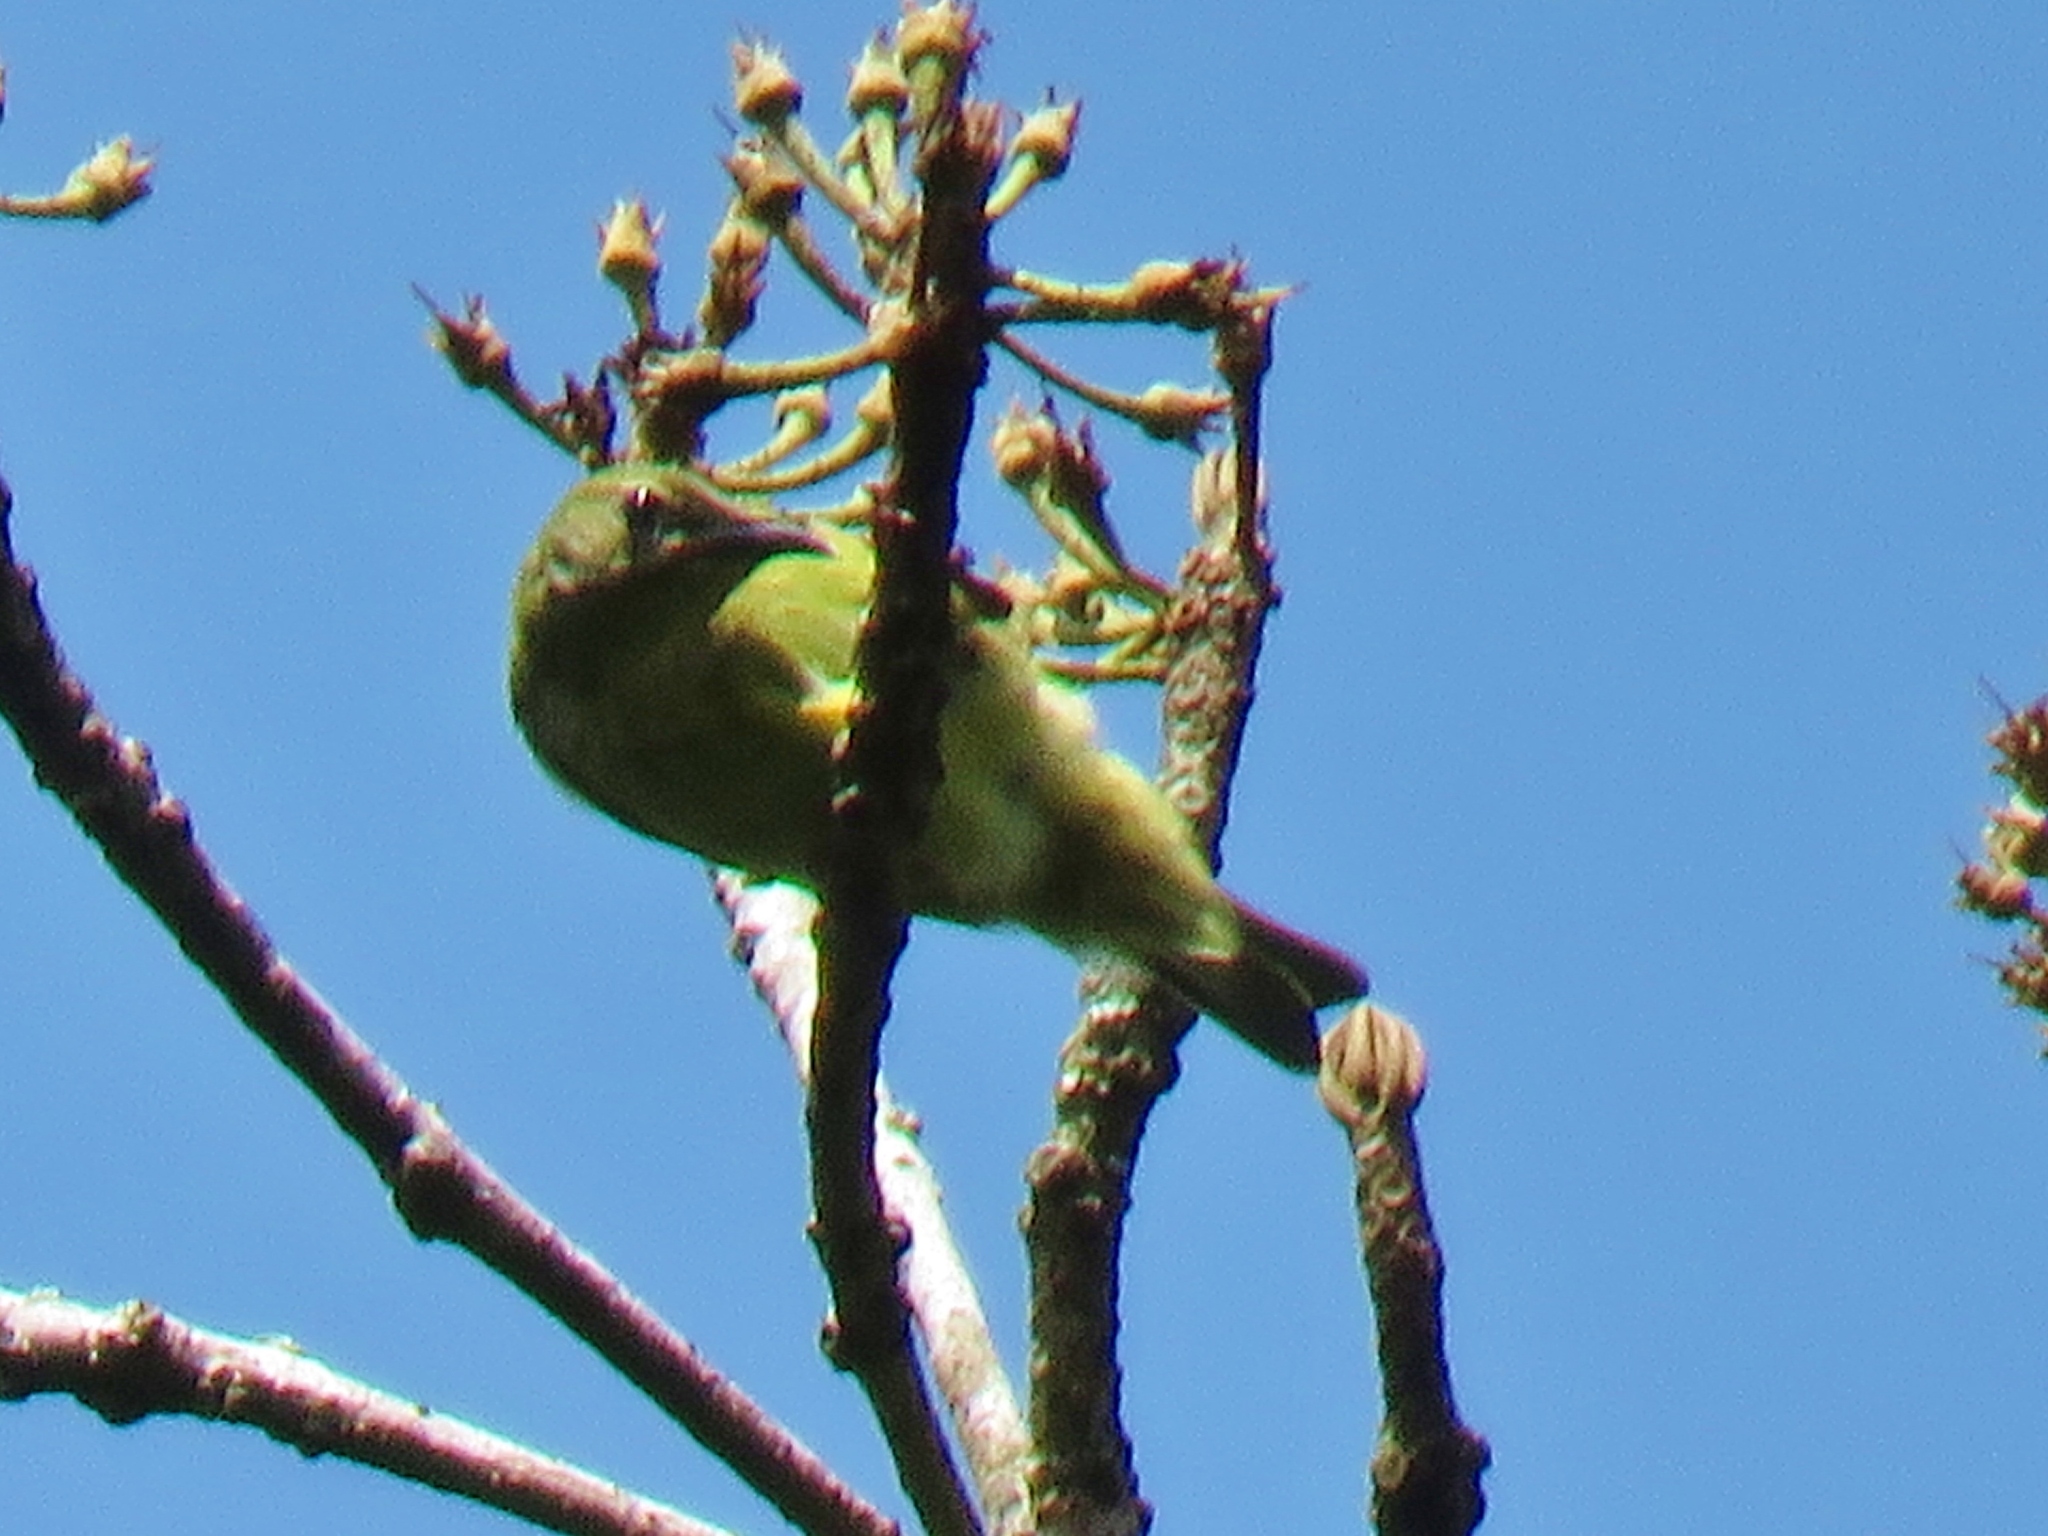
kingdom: Animalia
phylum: Chordata
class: Aves
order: Passeriformes
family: Thraupidae
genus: Cyanerpes
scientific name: Cyanerpes cyaneus
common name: Red-legged honeycreeper
